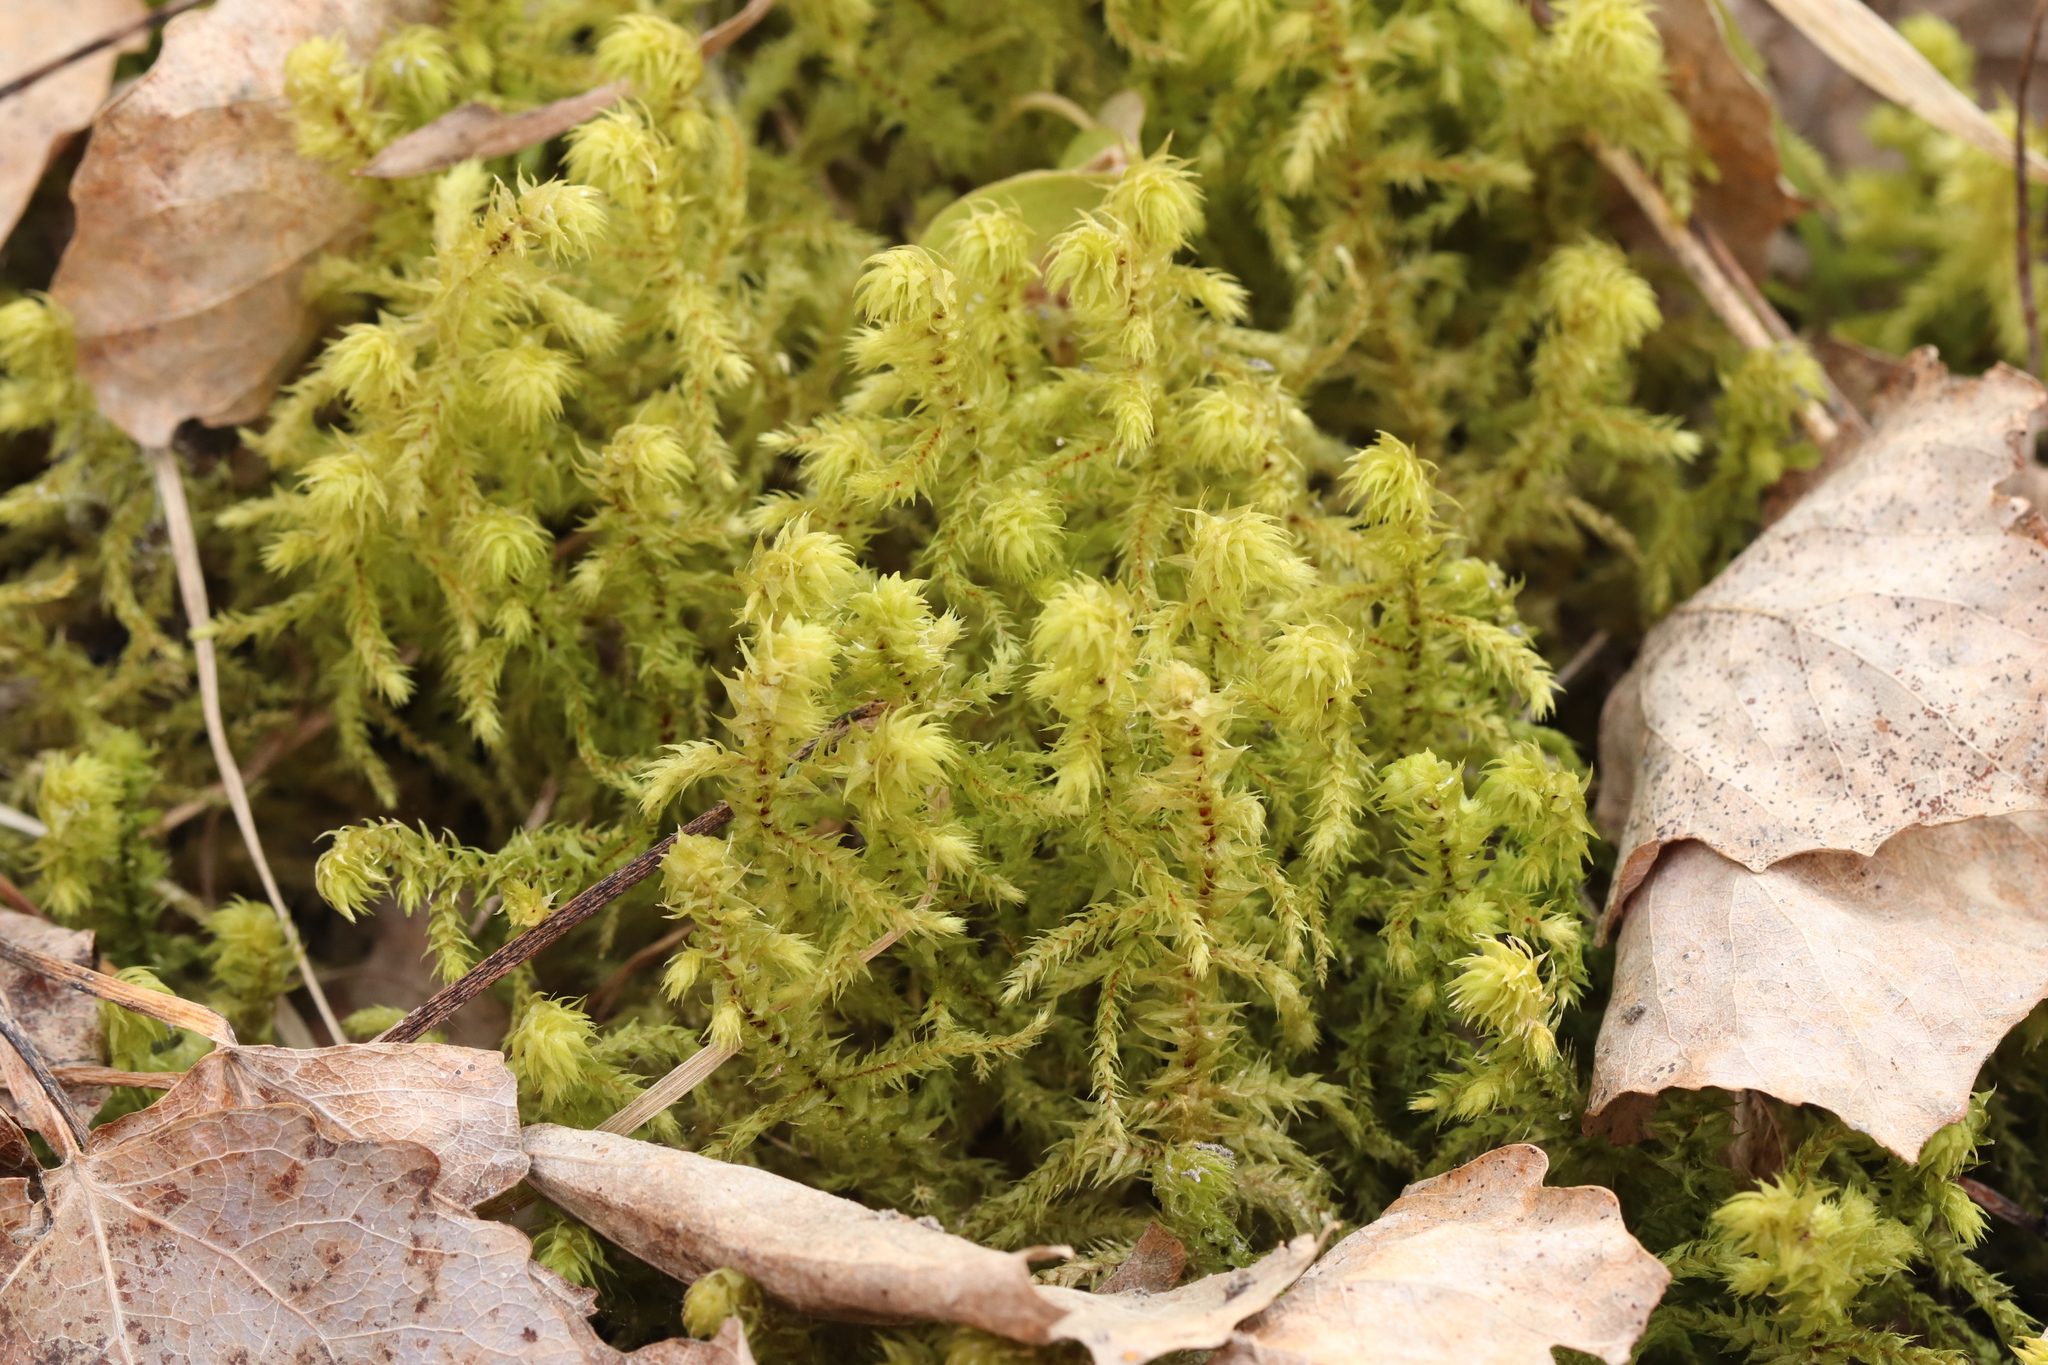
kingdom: Plantae
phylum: Bryophyta
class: Bryopsida
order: Hypnales
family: Hylocomiaceae
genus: Hylocomiadelphus
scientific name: Hylocomiadelphus triquetrus
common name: Rough goose neck moss
